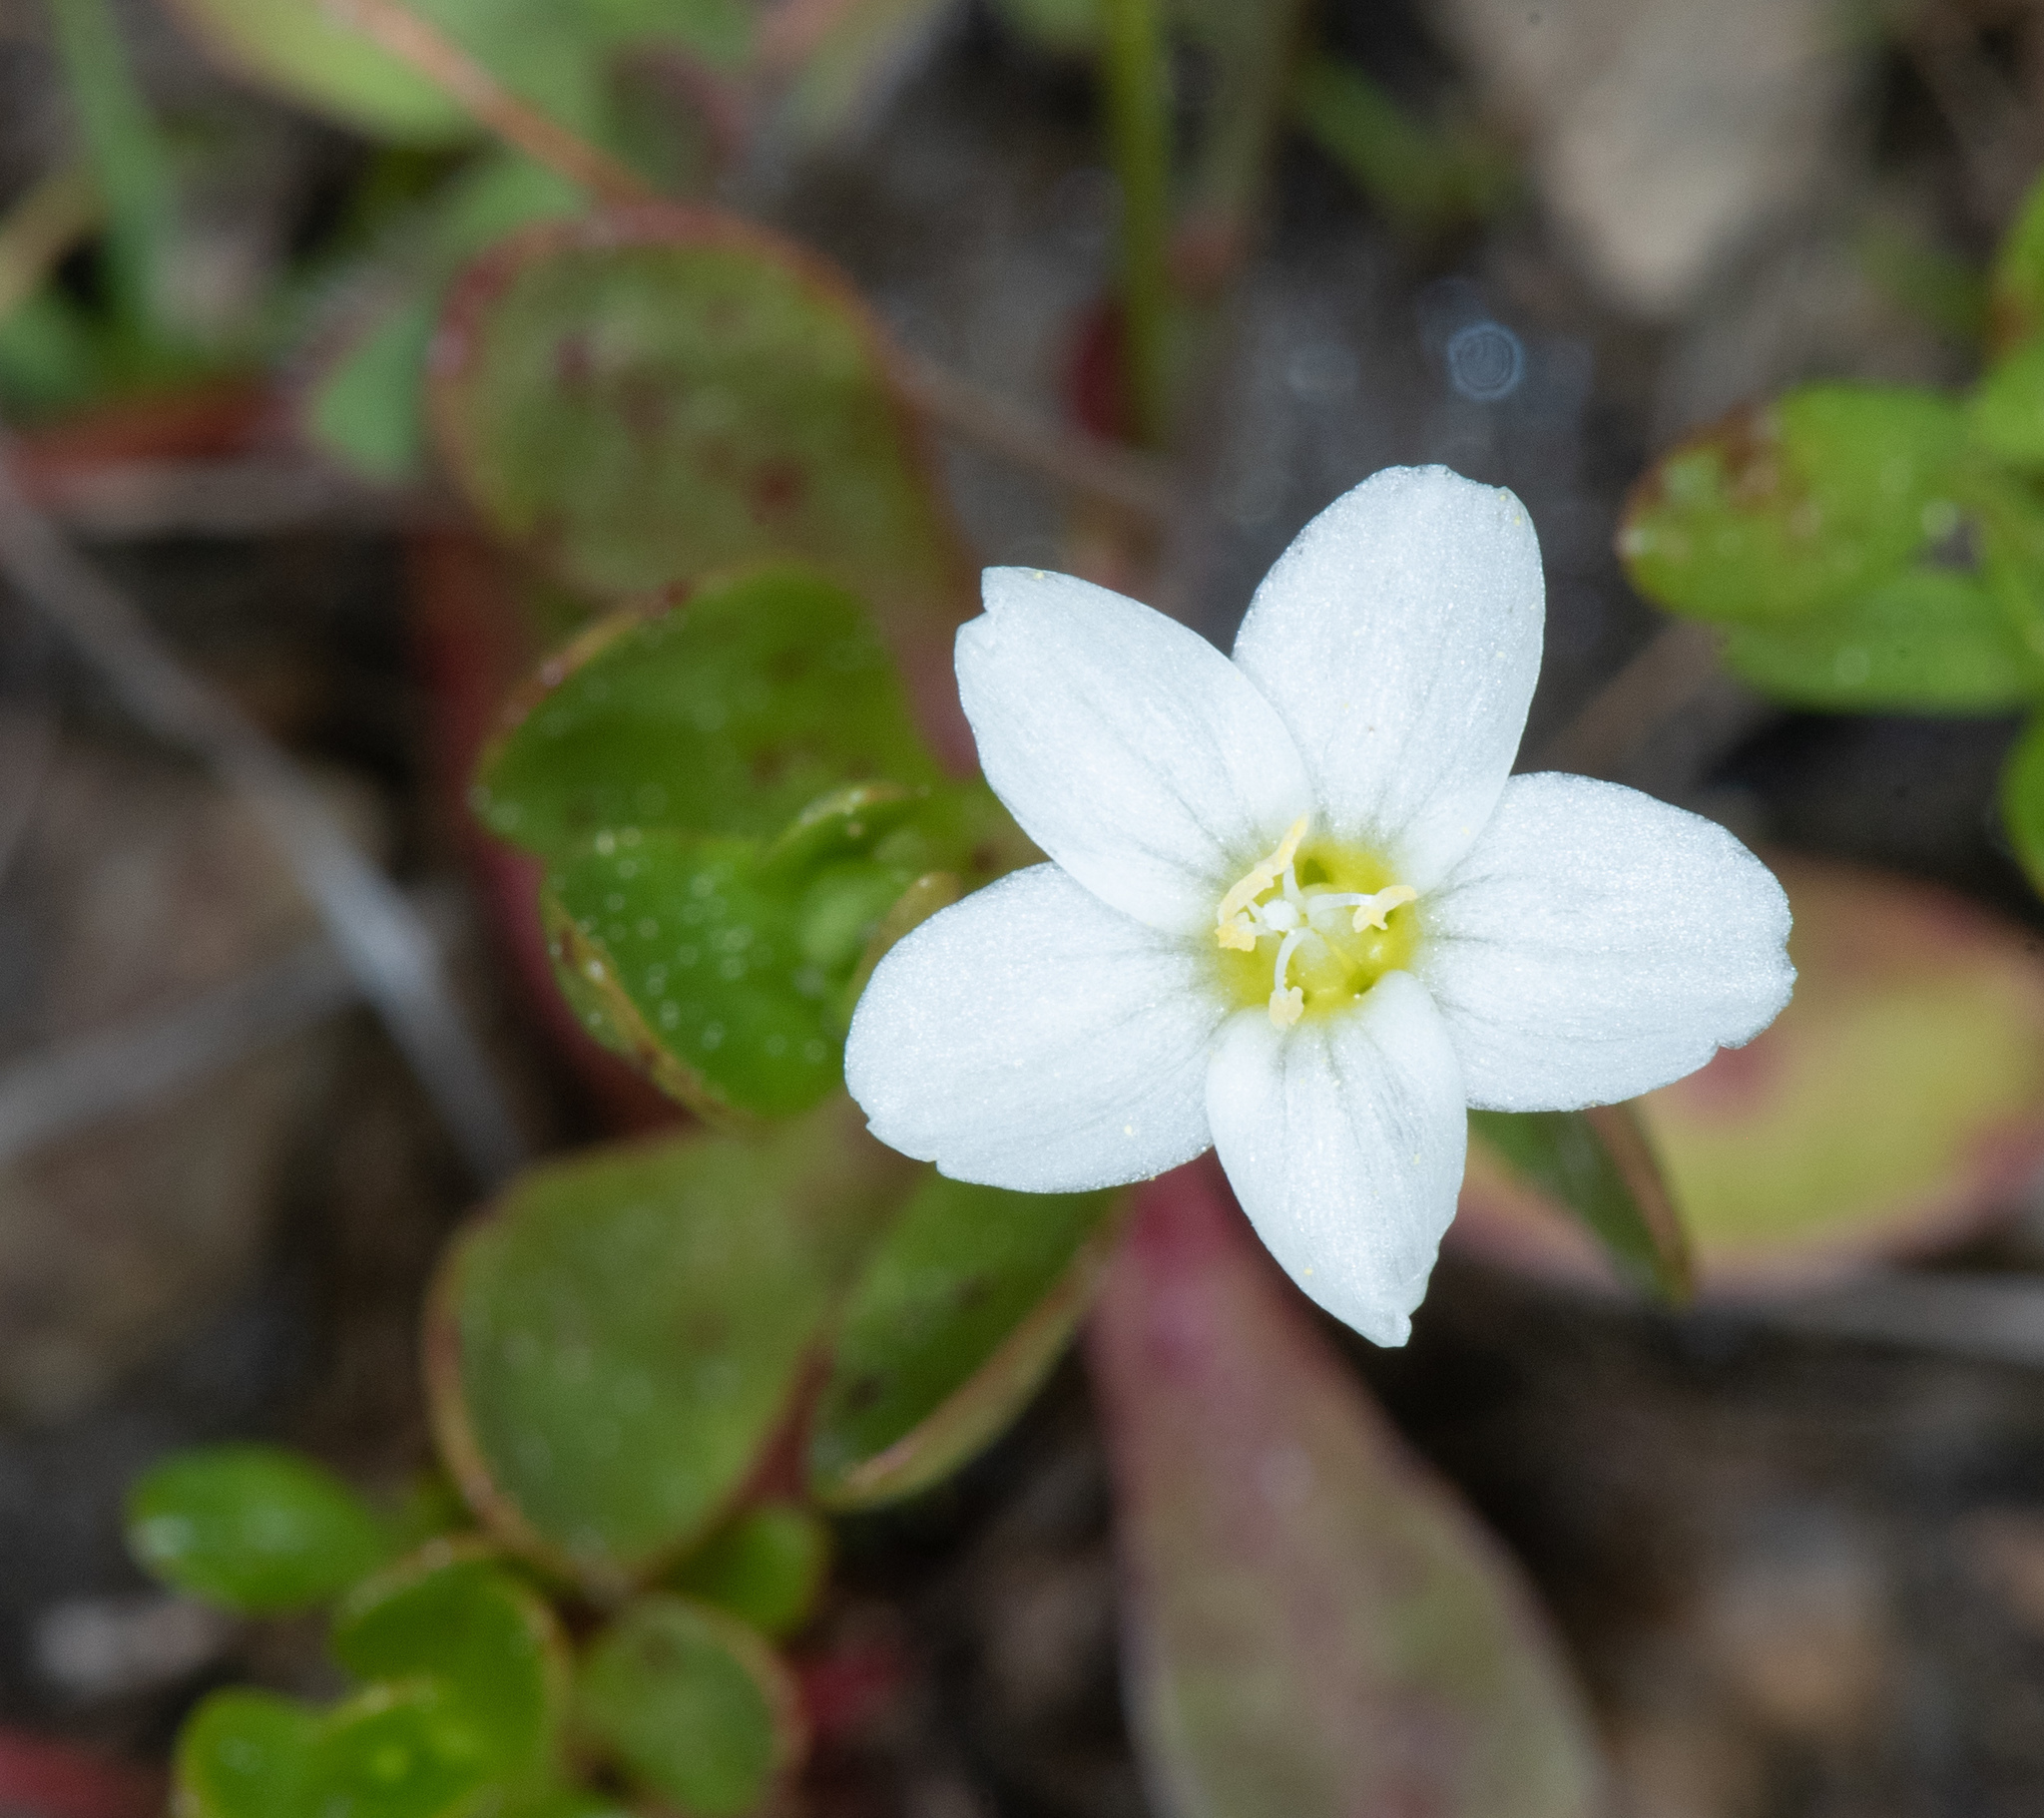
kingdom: Plantae
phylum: Tracheophyta
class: Magnoliopsida
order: Caryophyllales
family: Montiaceae
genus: Montia
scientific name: Montia chamissoi
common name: Chamisso's candyflower
